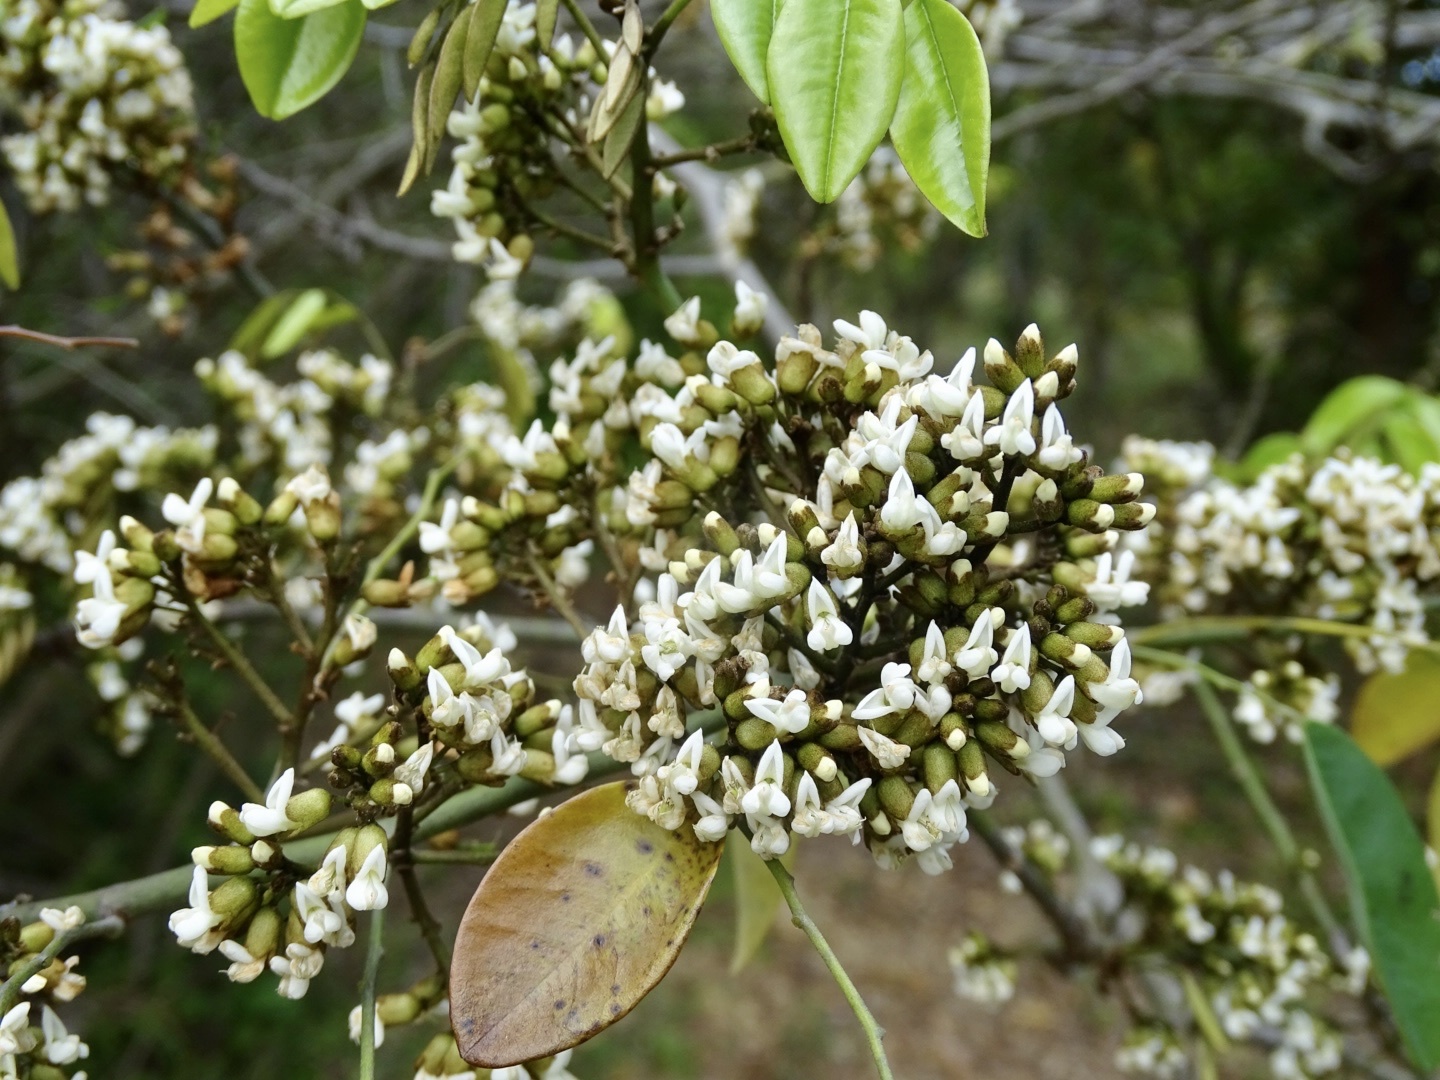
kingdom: Plantae
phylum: Tracheophyta
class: Magnoliopsida
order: Fabales
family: Fabaceae
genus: Dalbergia
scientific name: Dalbergia benthamii
